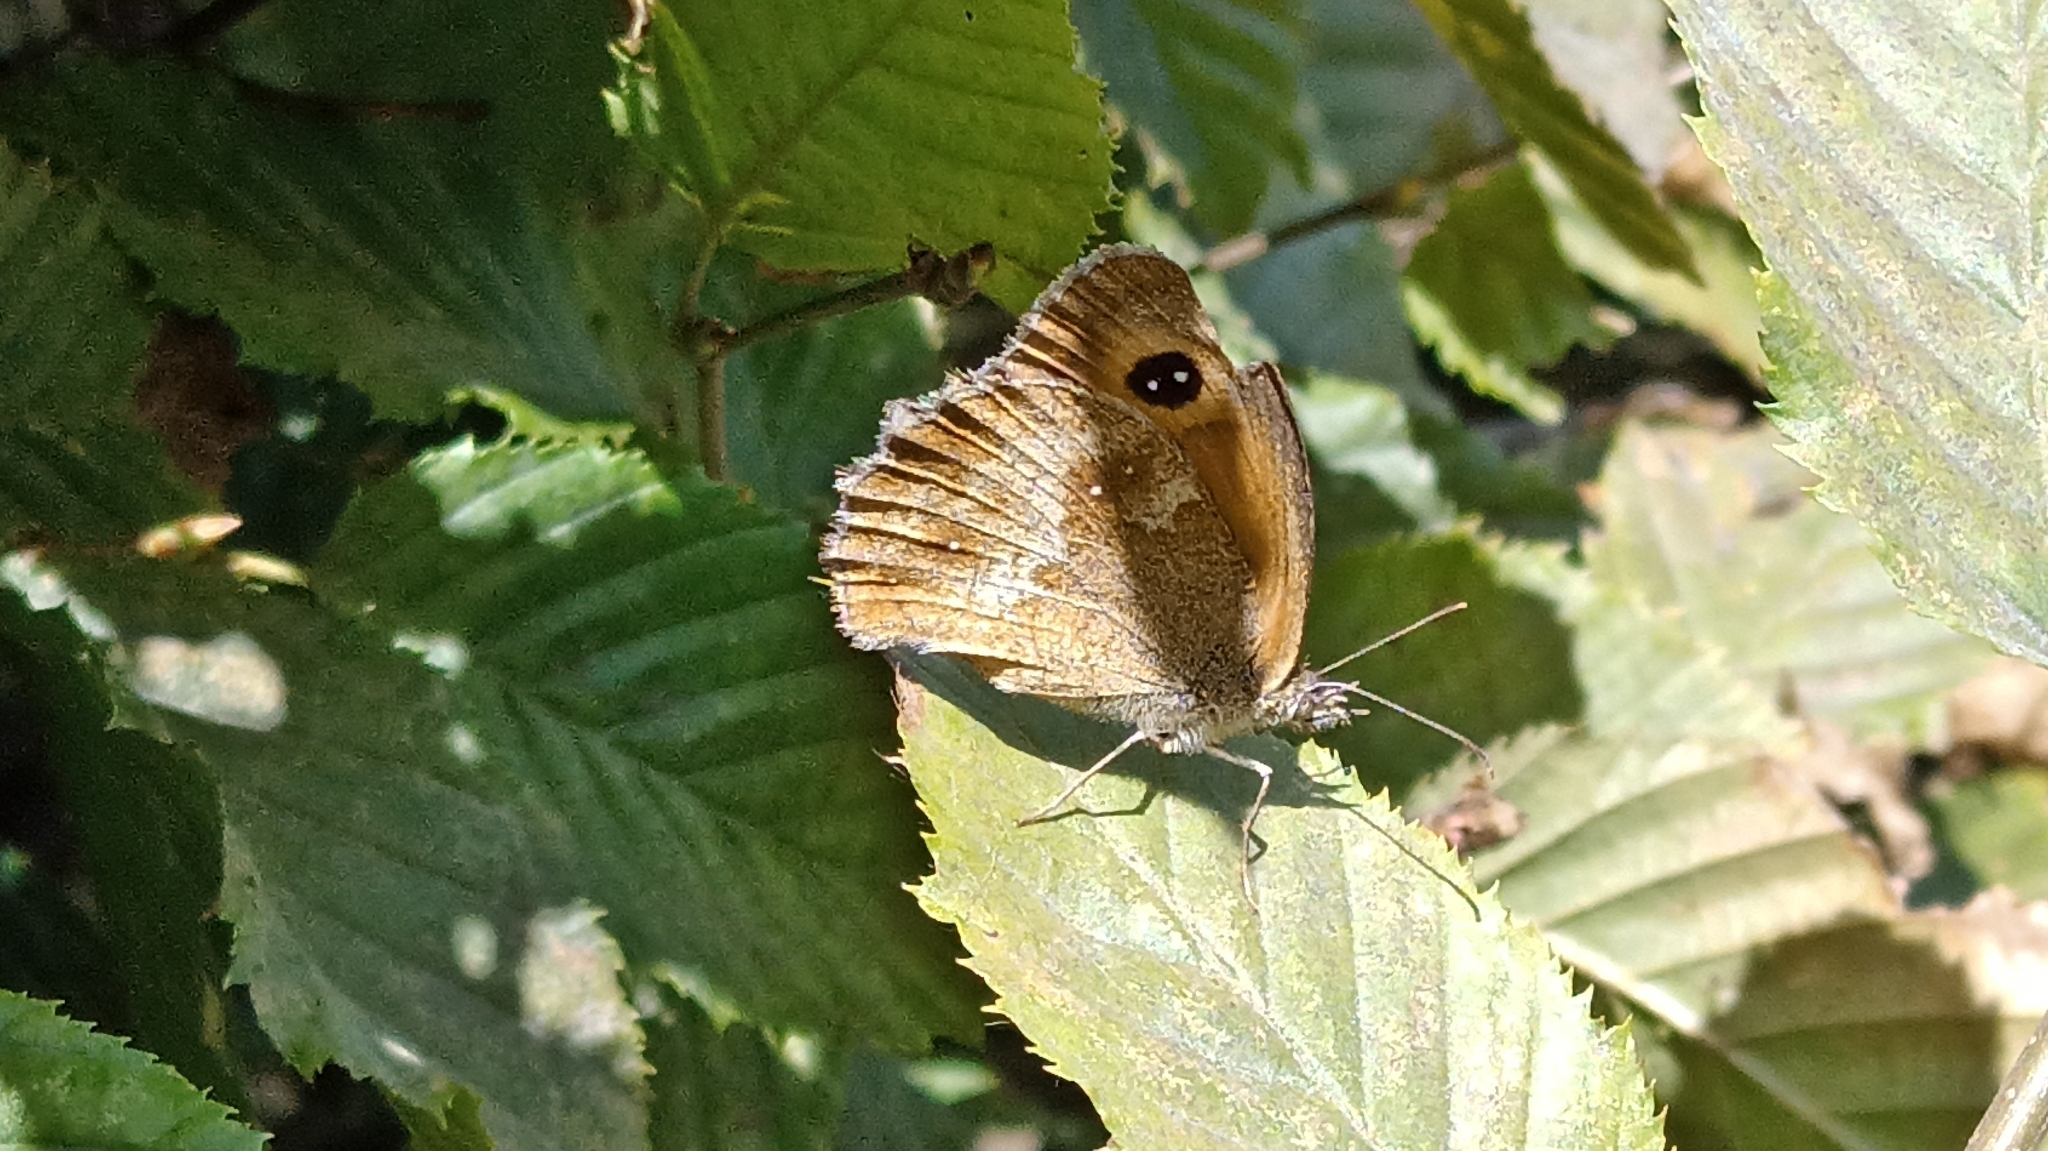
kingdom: Animalia
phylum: Arthropoda
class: Insecta
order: Lepidoptera
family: Nymphalidae
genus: Pyronia
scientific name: Pyronia tithonus
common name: Gatekeeper
